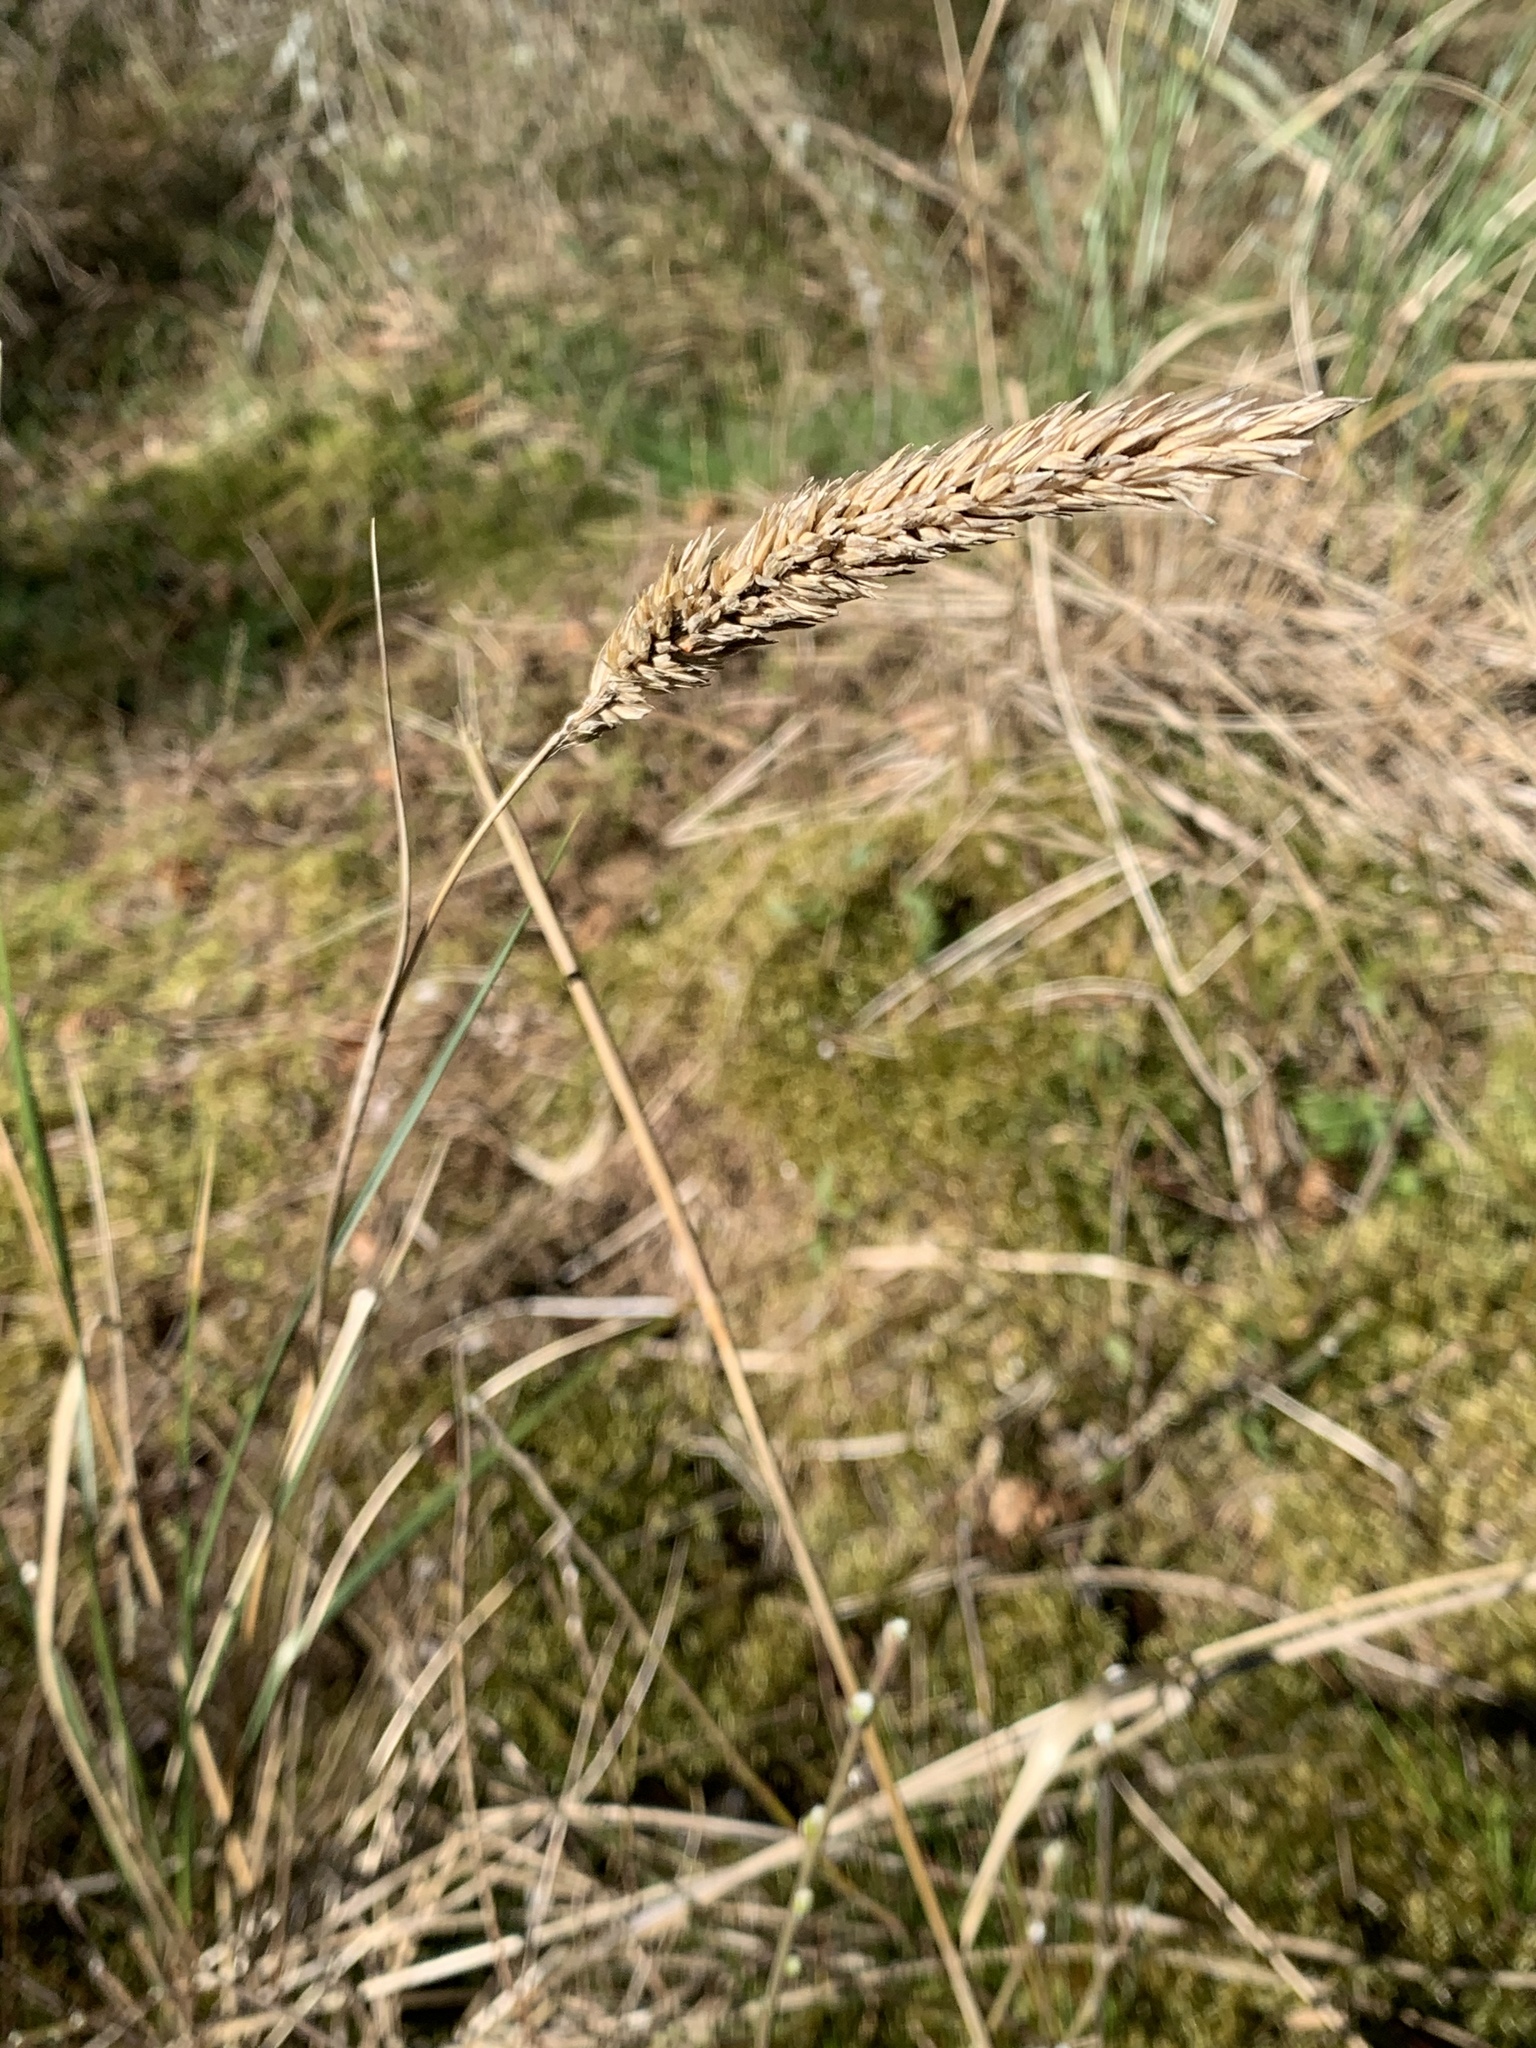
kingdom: Plantae
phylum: Tracheophyta
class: Liliopsida
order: Poales
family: Poaceae
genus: Calamagrostis
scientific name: Calamagrostis arenaria
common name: European beachgrass
